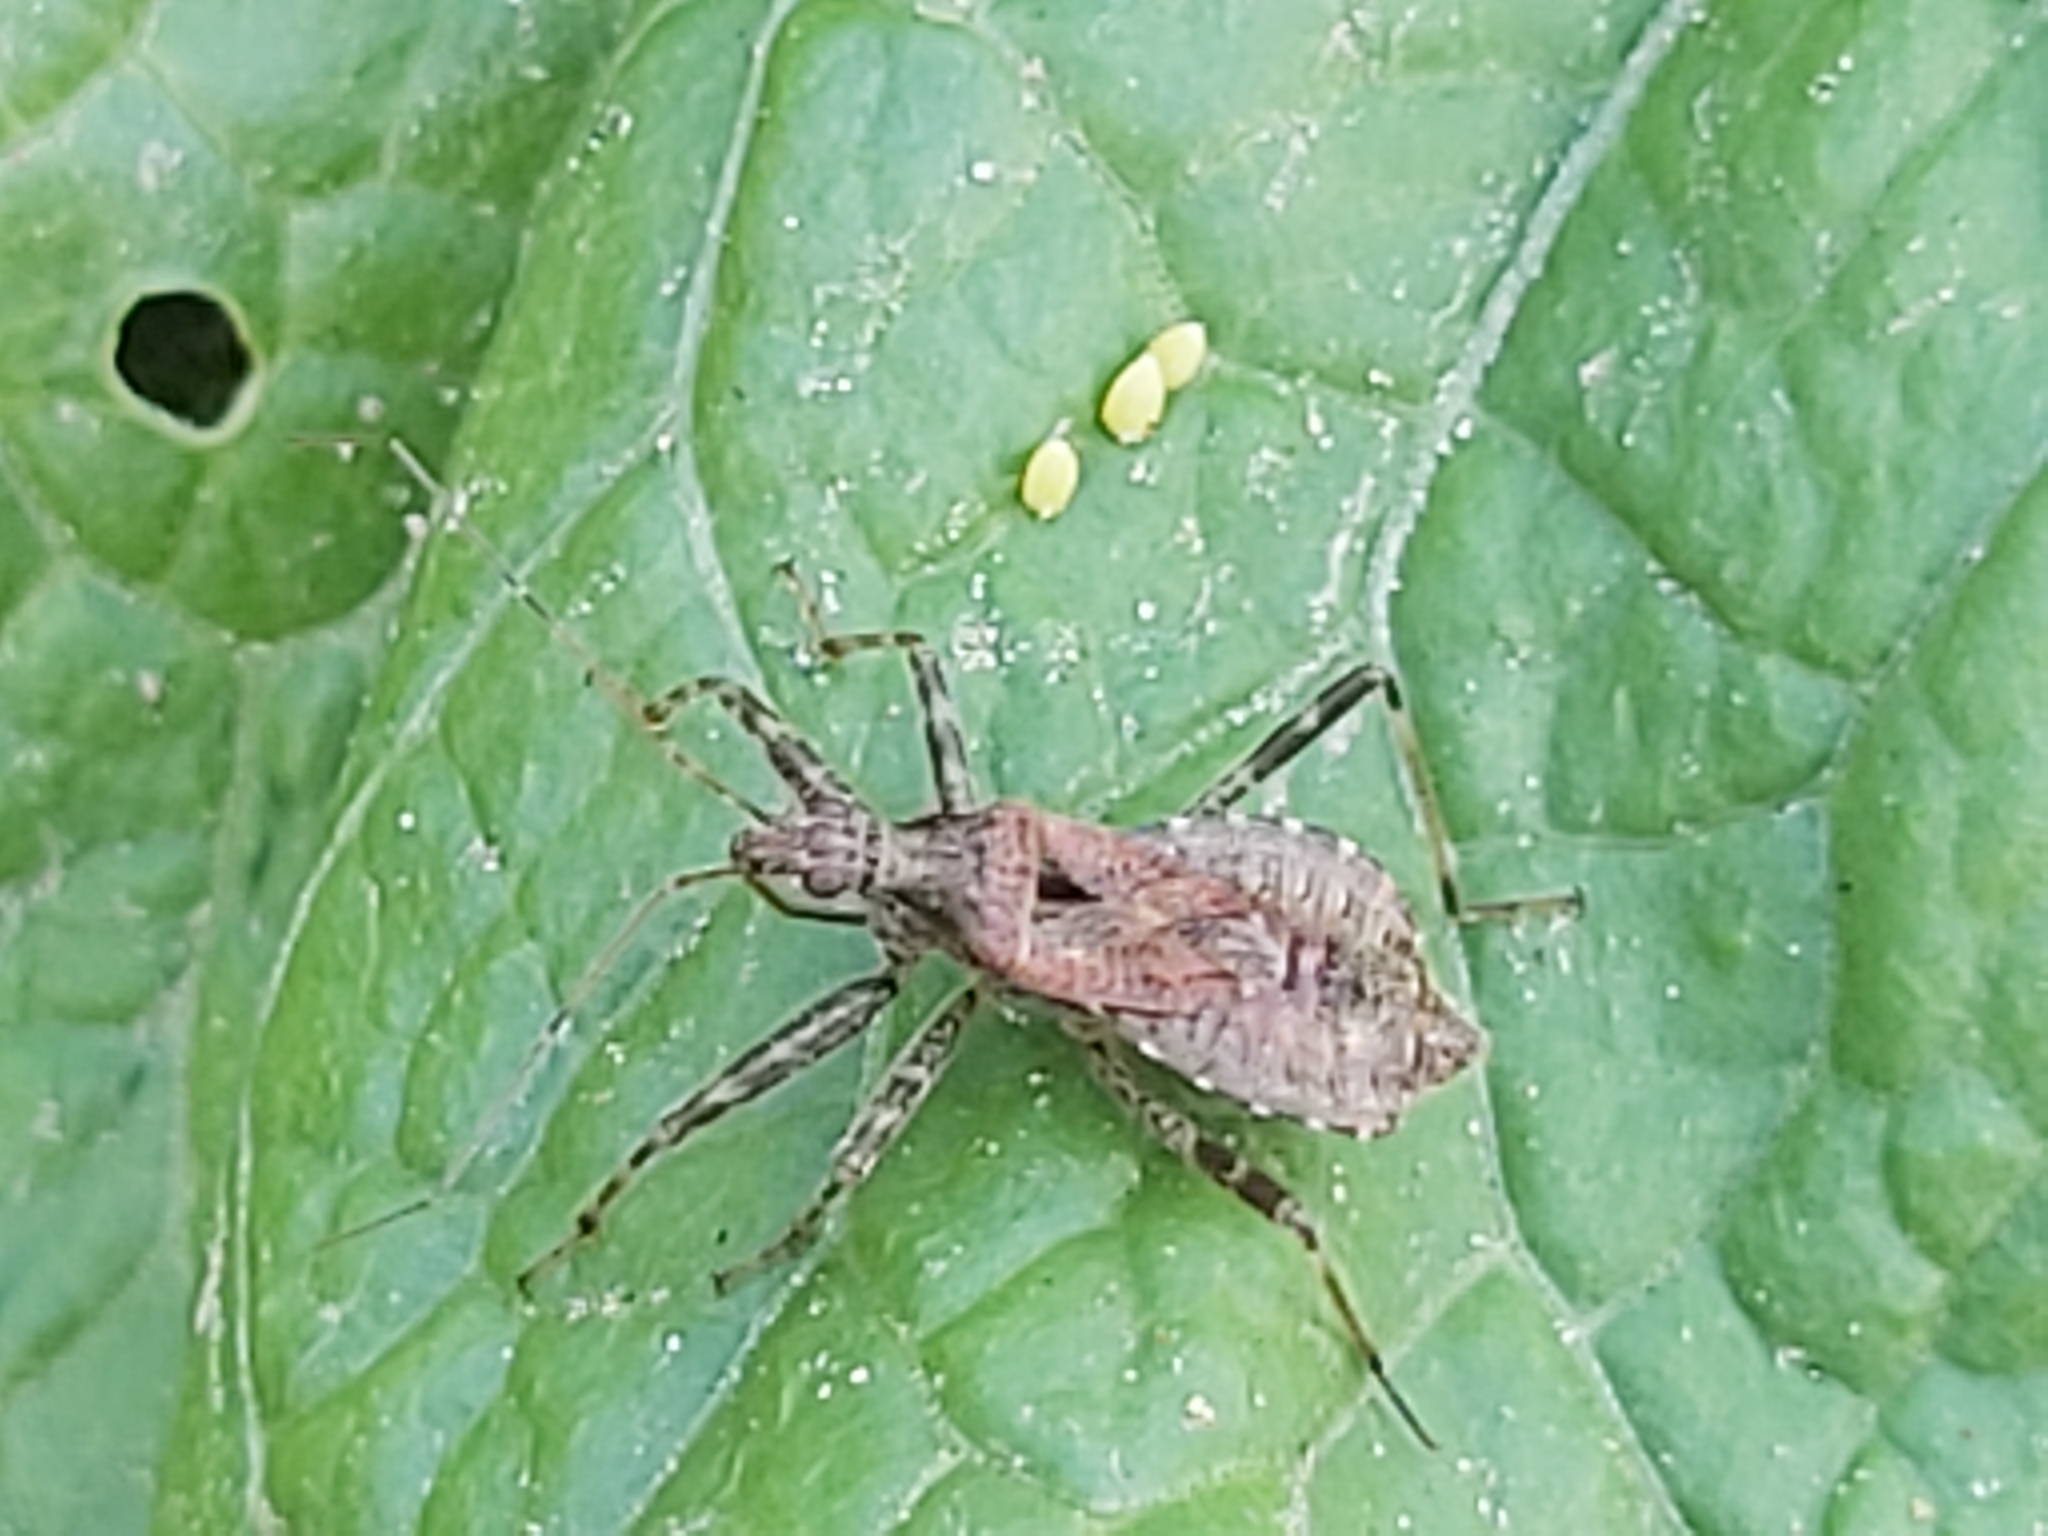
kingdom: Animalia
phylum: Arthropoda
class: Insecta
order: Hemiptera
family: Nabidae
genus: Himacerus
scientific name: Himacerus apterus
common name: Tree damsel bug
